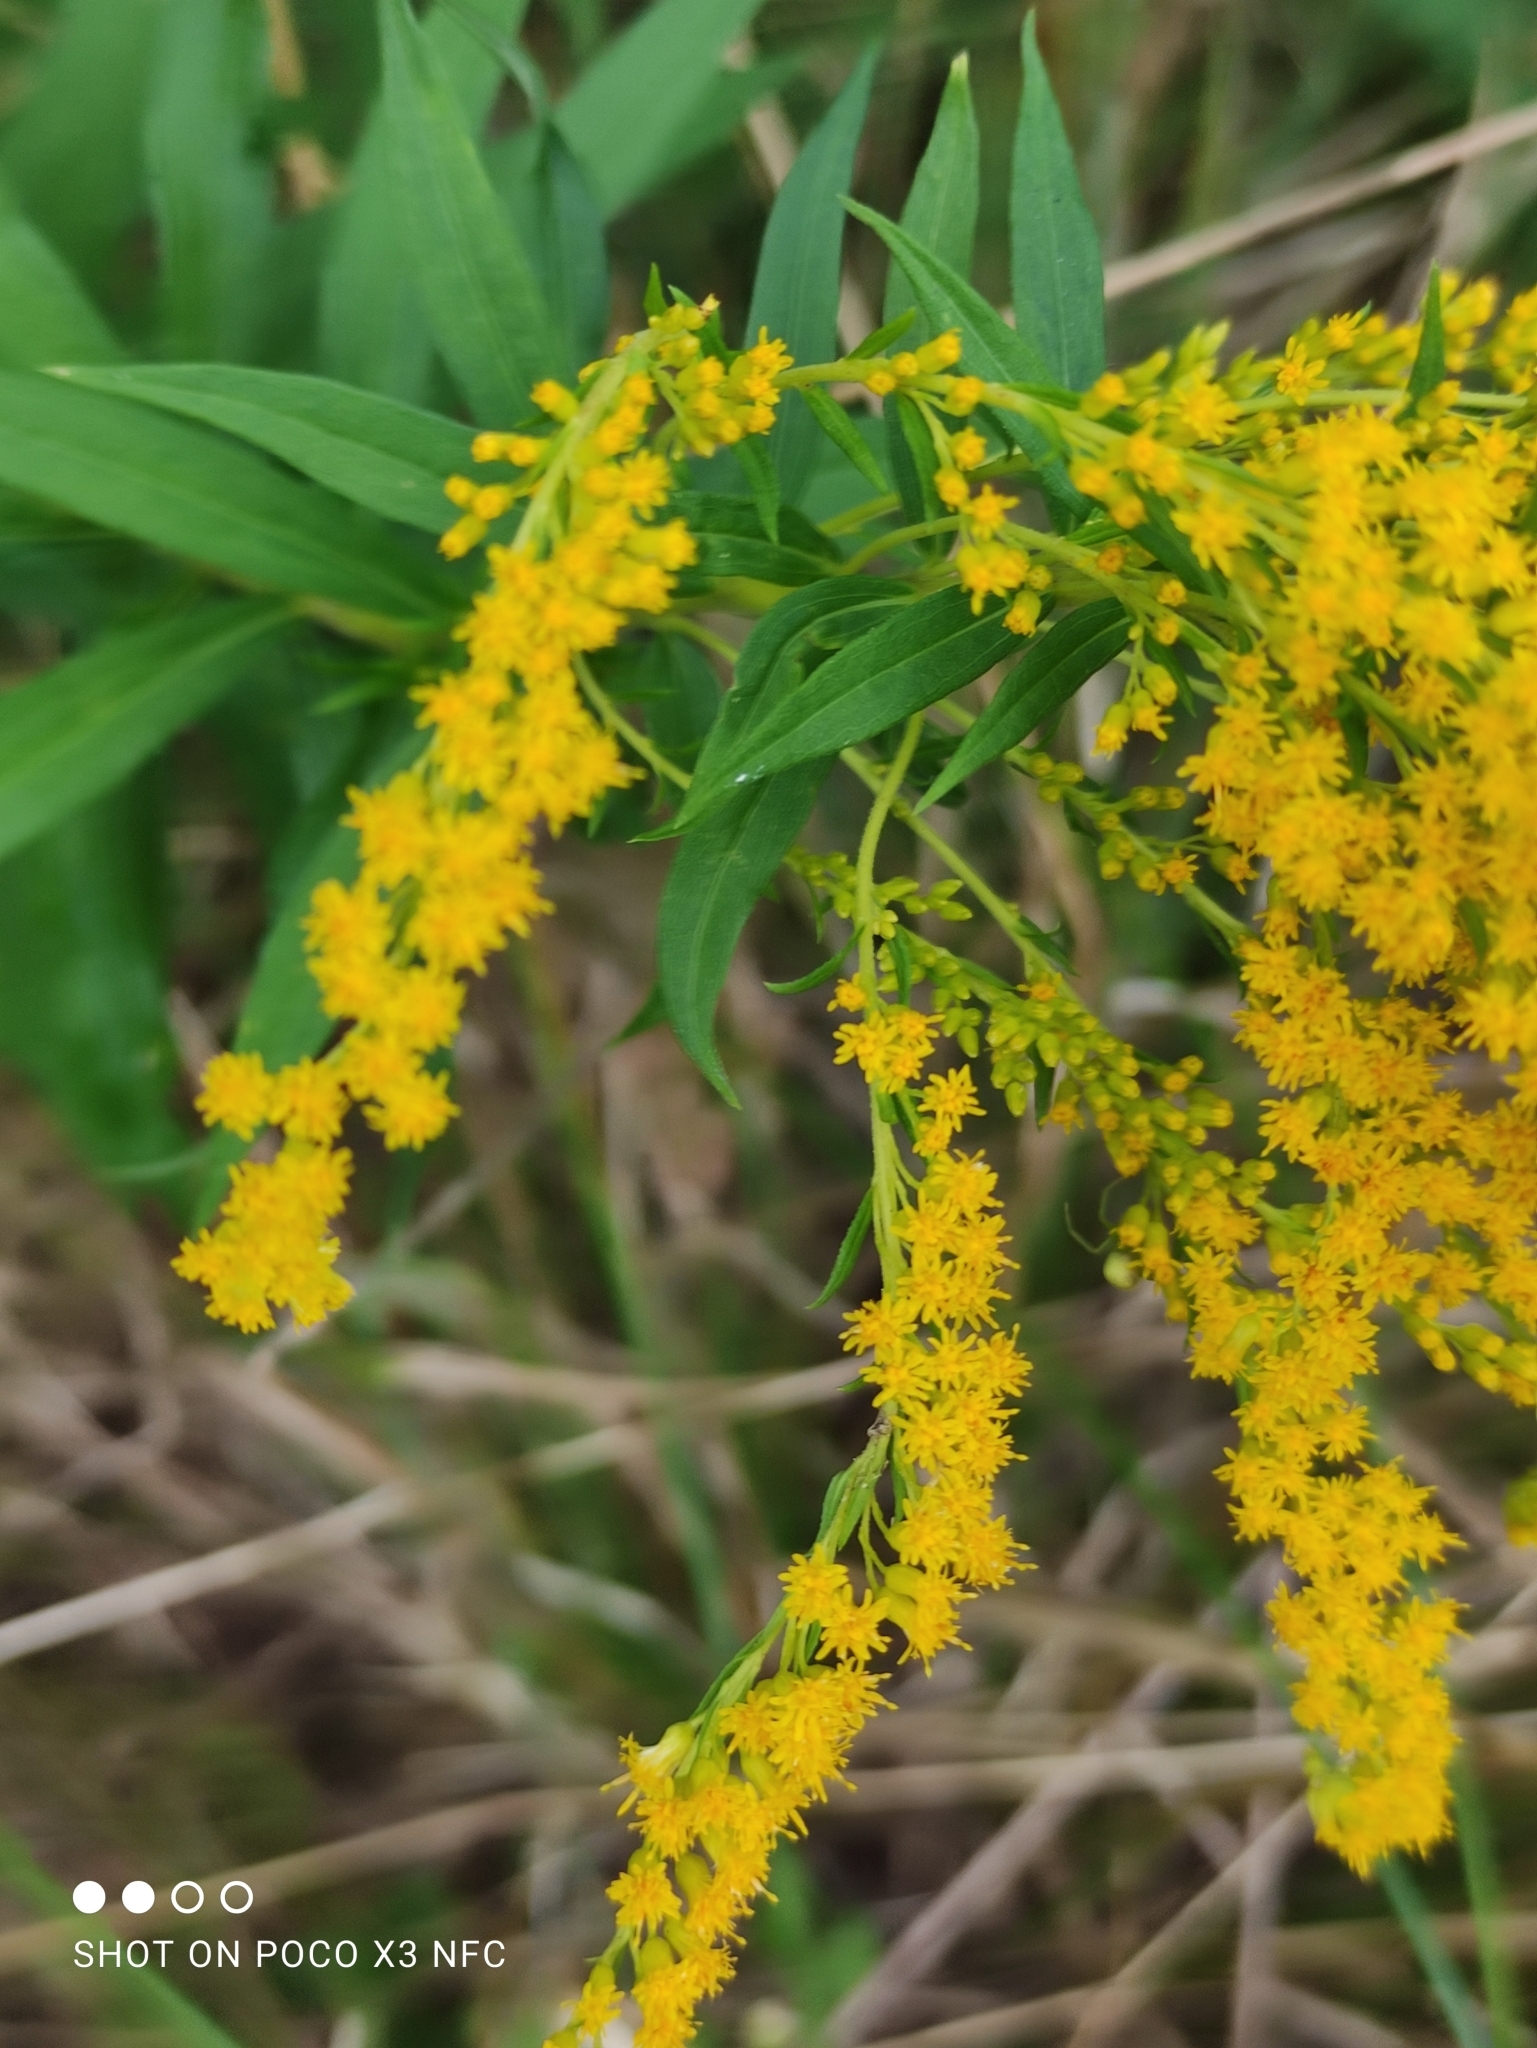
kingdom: Plantae
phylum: Tracheophyta
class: Magnoliopsida
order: Asterales
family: Asteraceae
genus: Solidago
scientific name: Solidago canadensis
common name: Canada goldenrod
